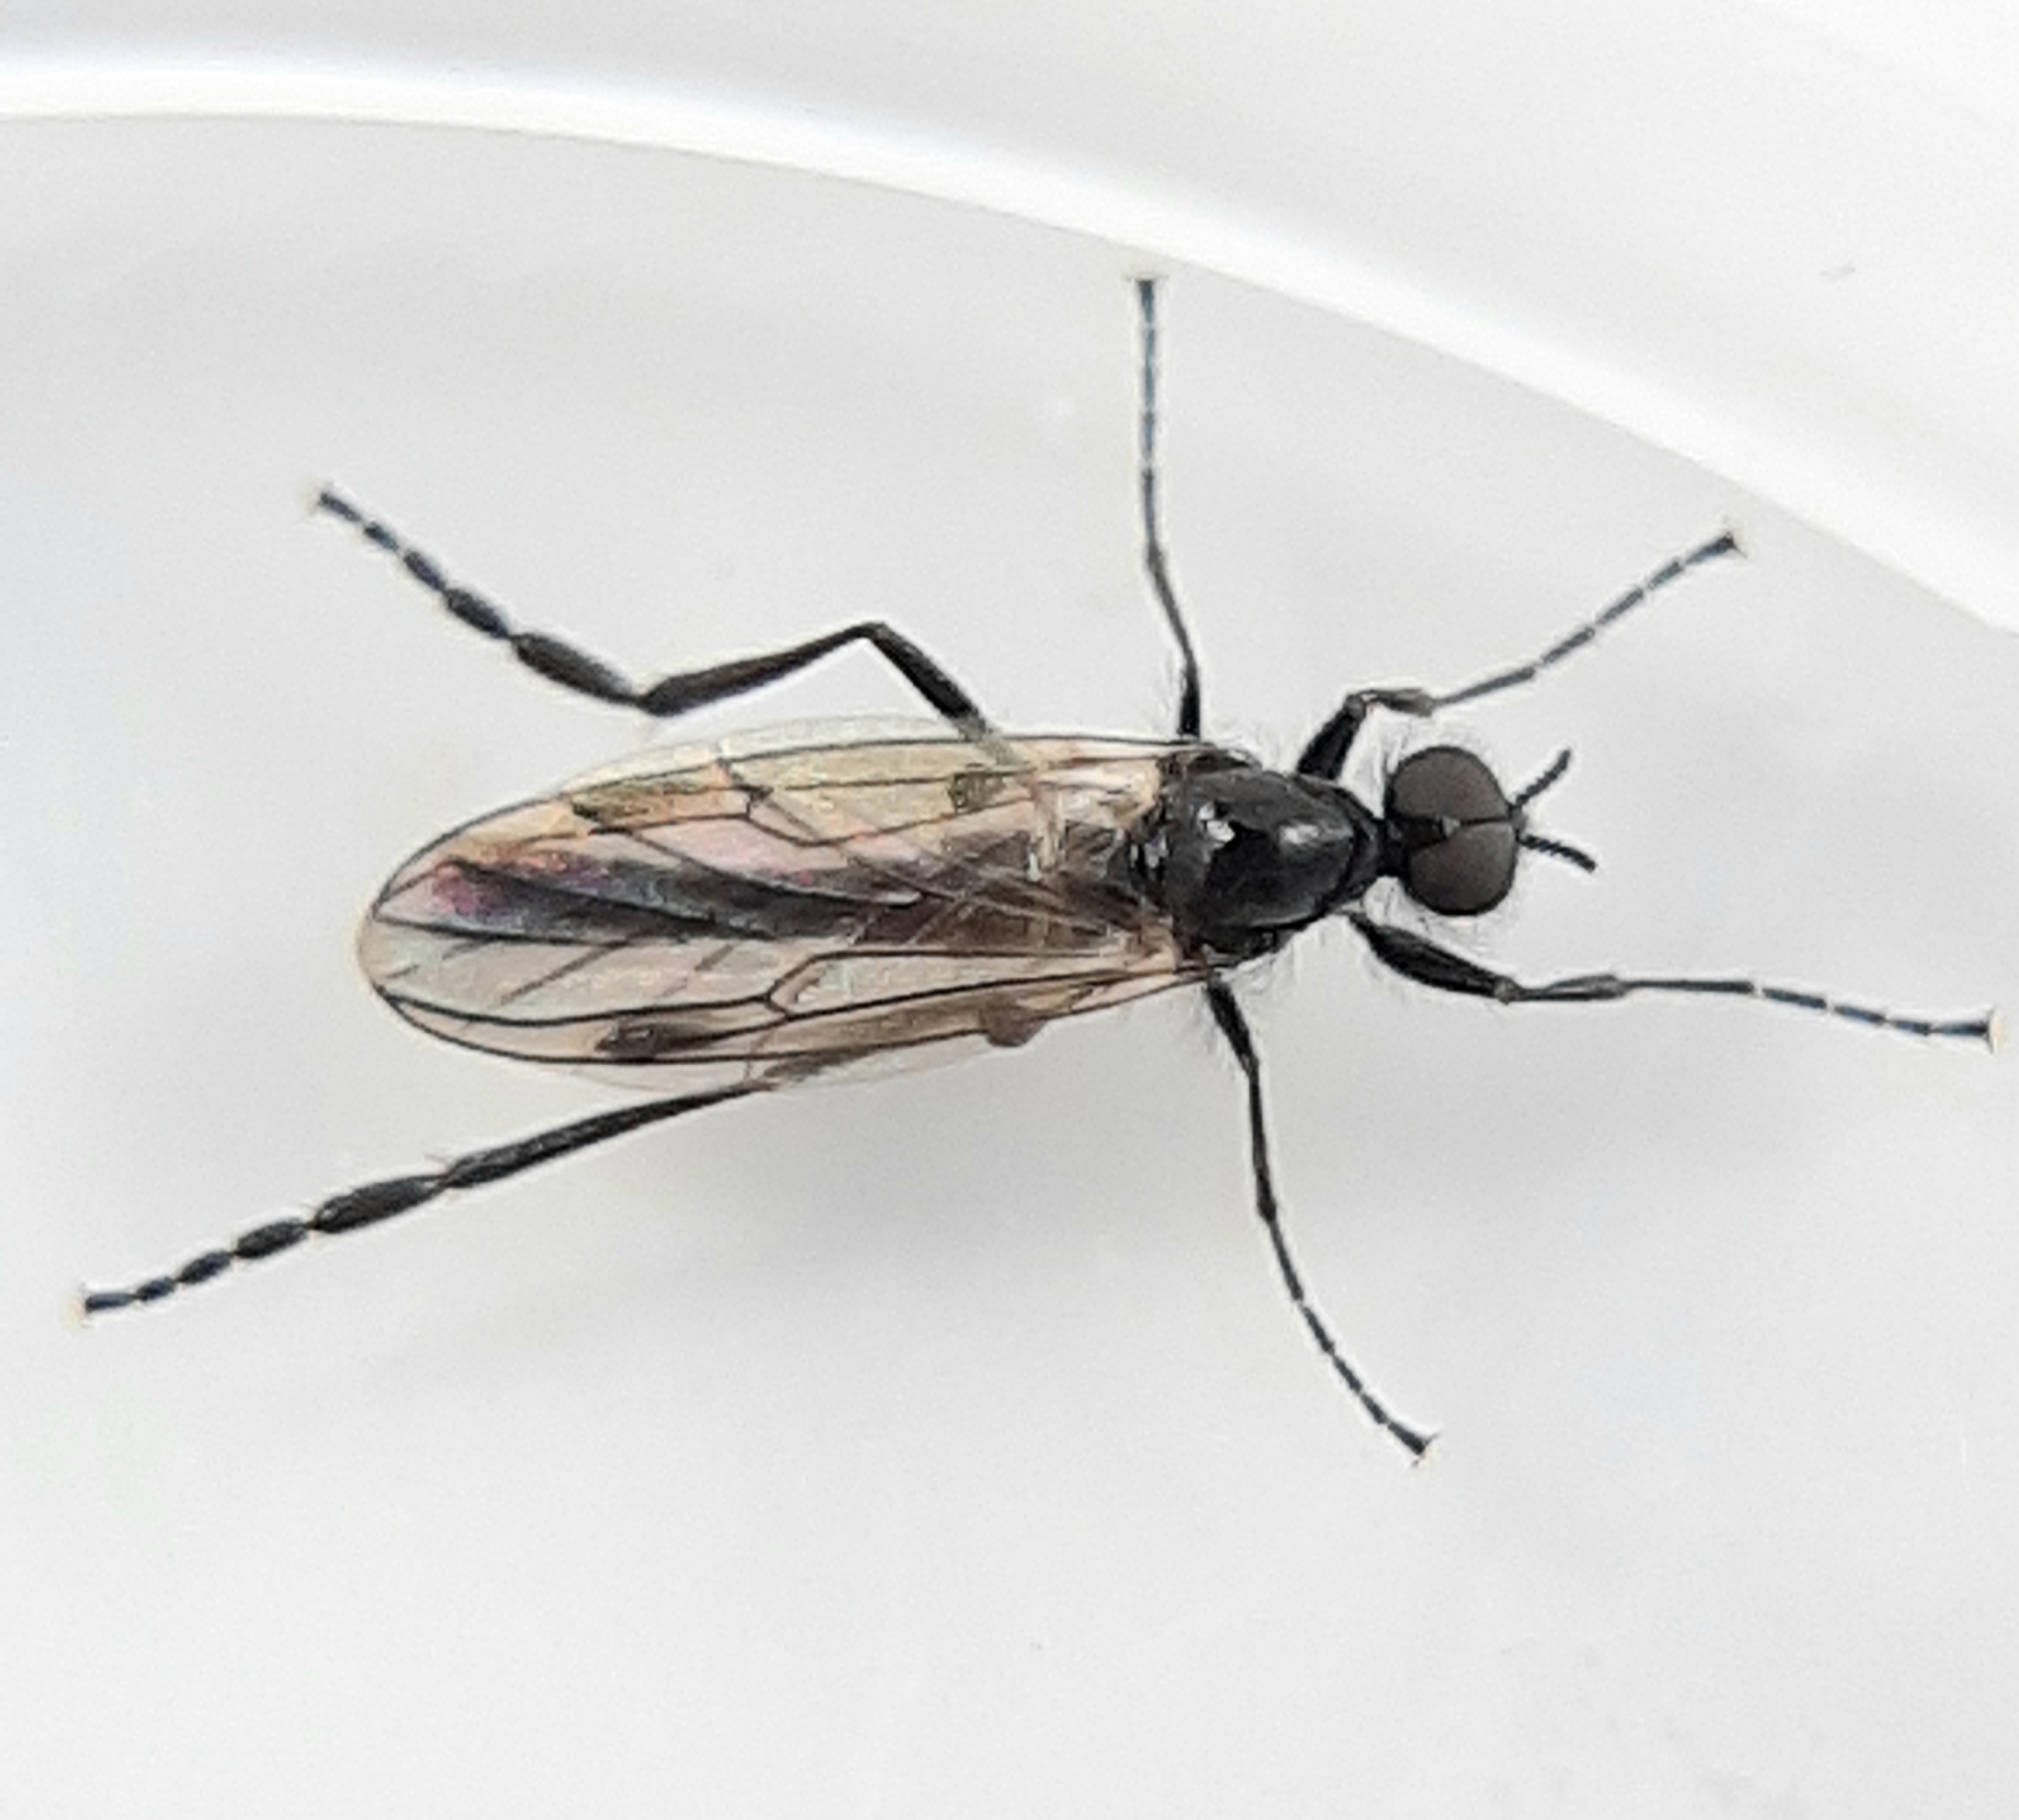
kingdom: Animalia
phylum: Arthropoda
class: Insecta
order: Diptera
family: Bibionidae
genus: Bibio
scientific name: Bibio slossonae
